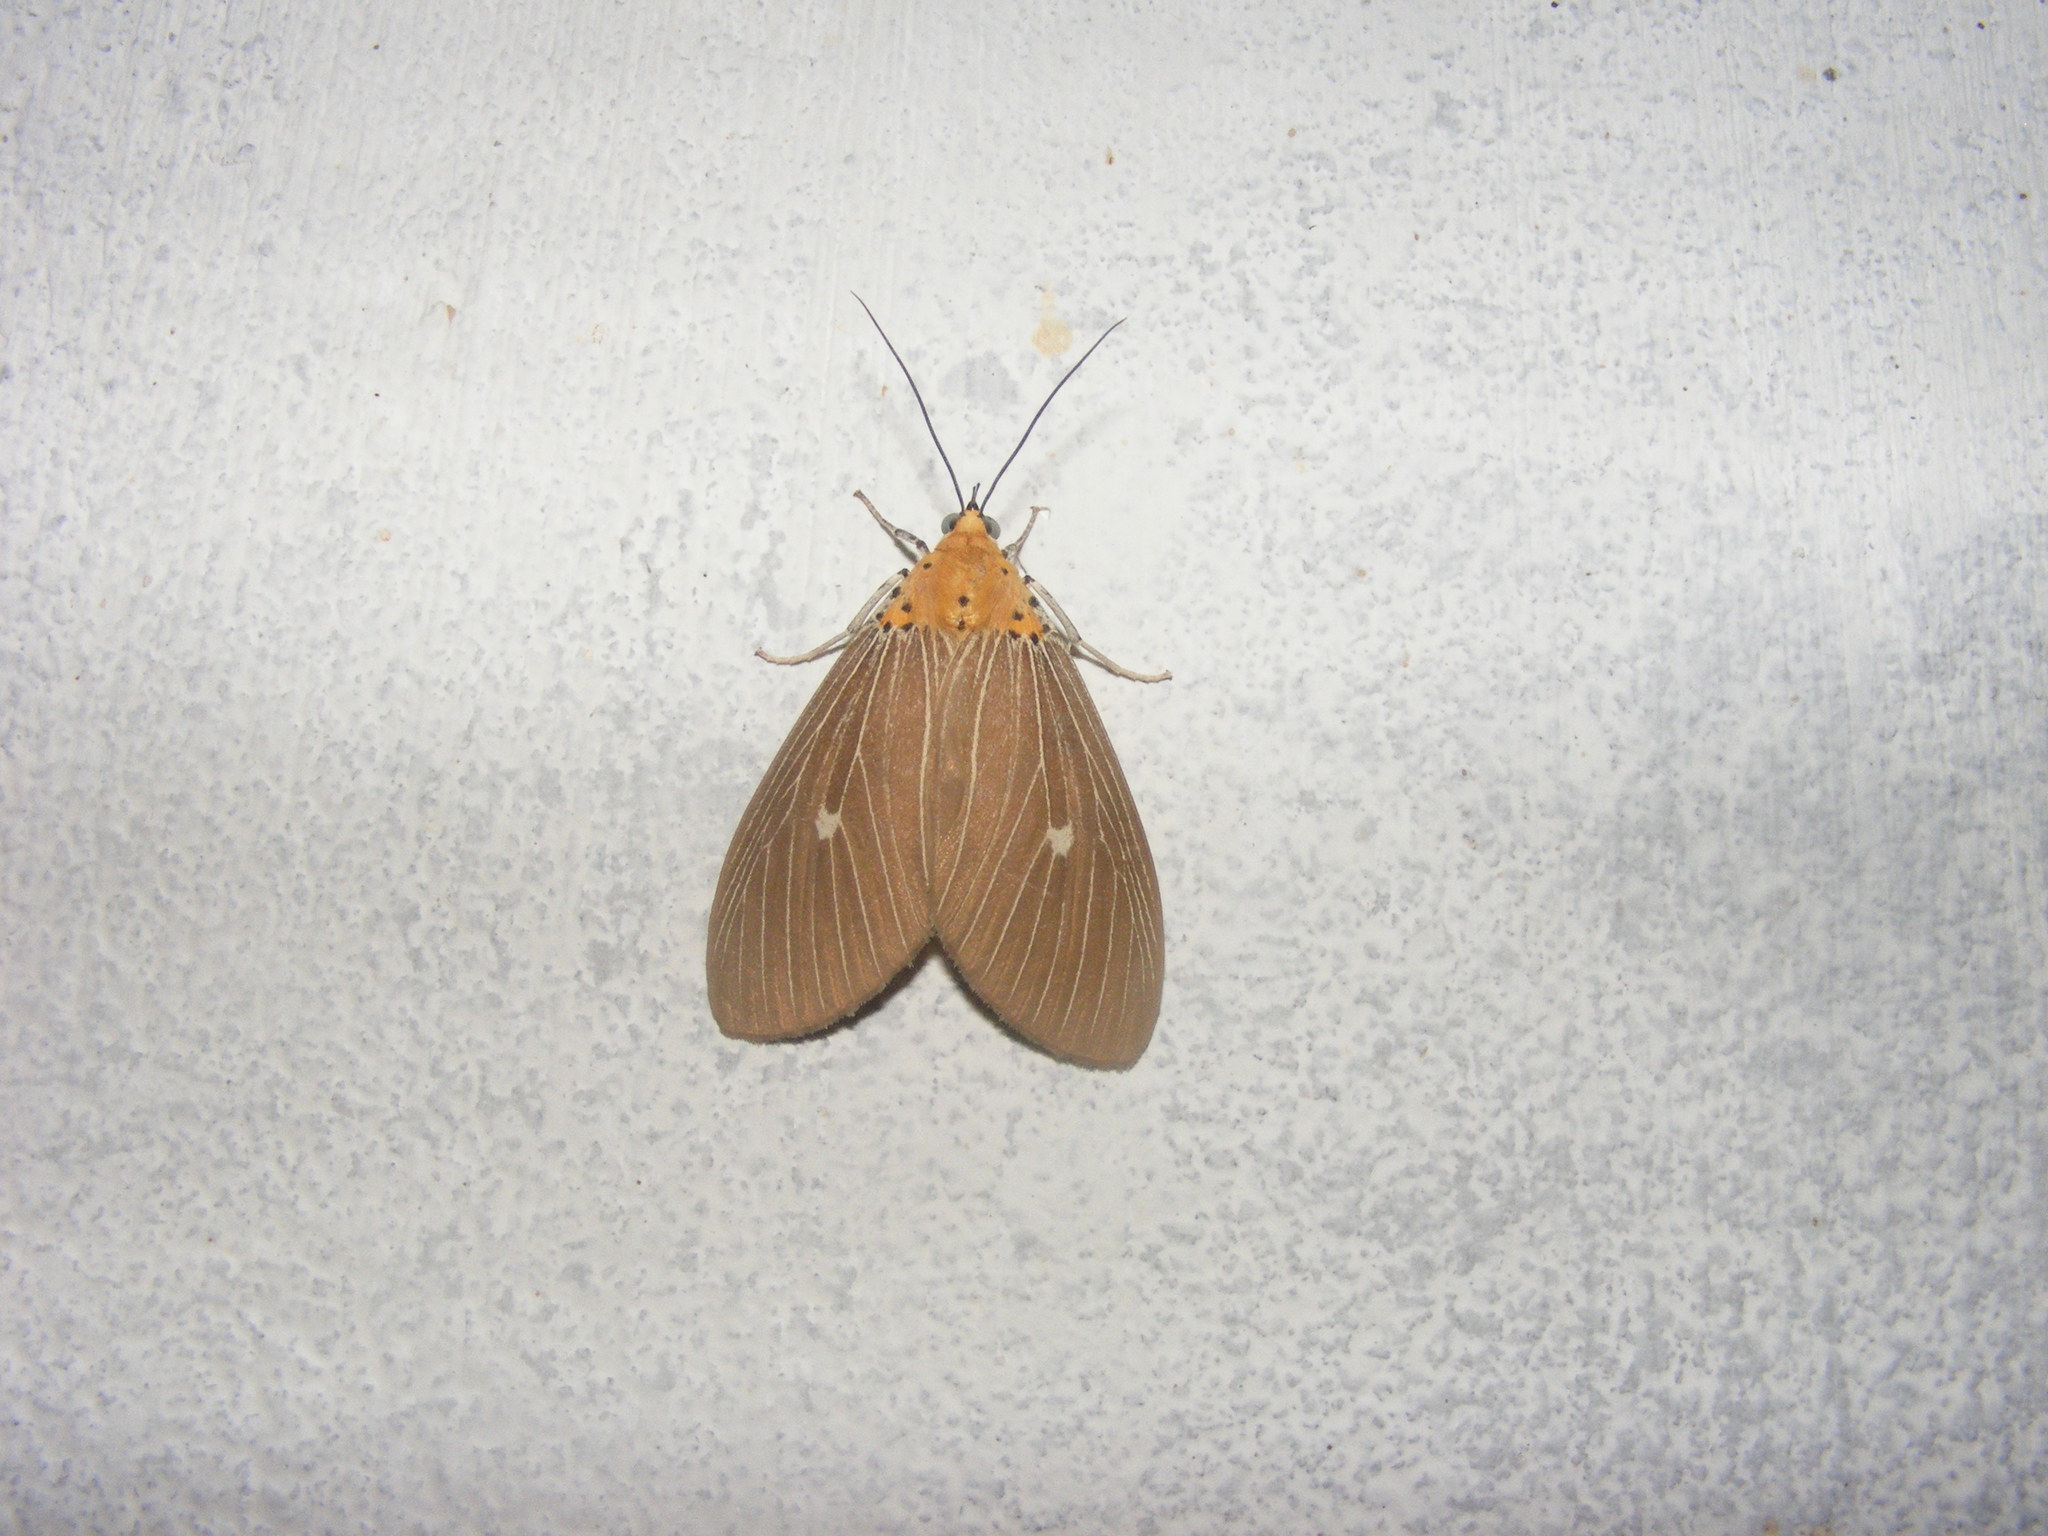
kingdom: Animalia
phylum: Arthropoda
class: Insecta
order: Lepidoptera
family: Erebidae
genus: Asota
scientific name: Asota caricae
